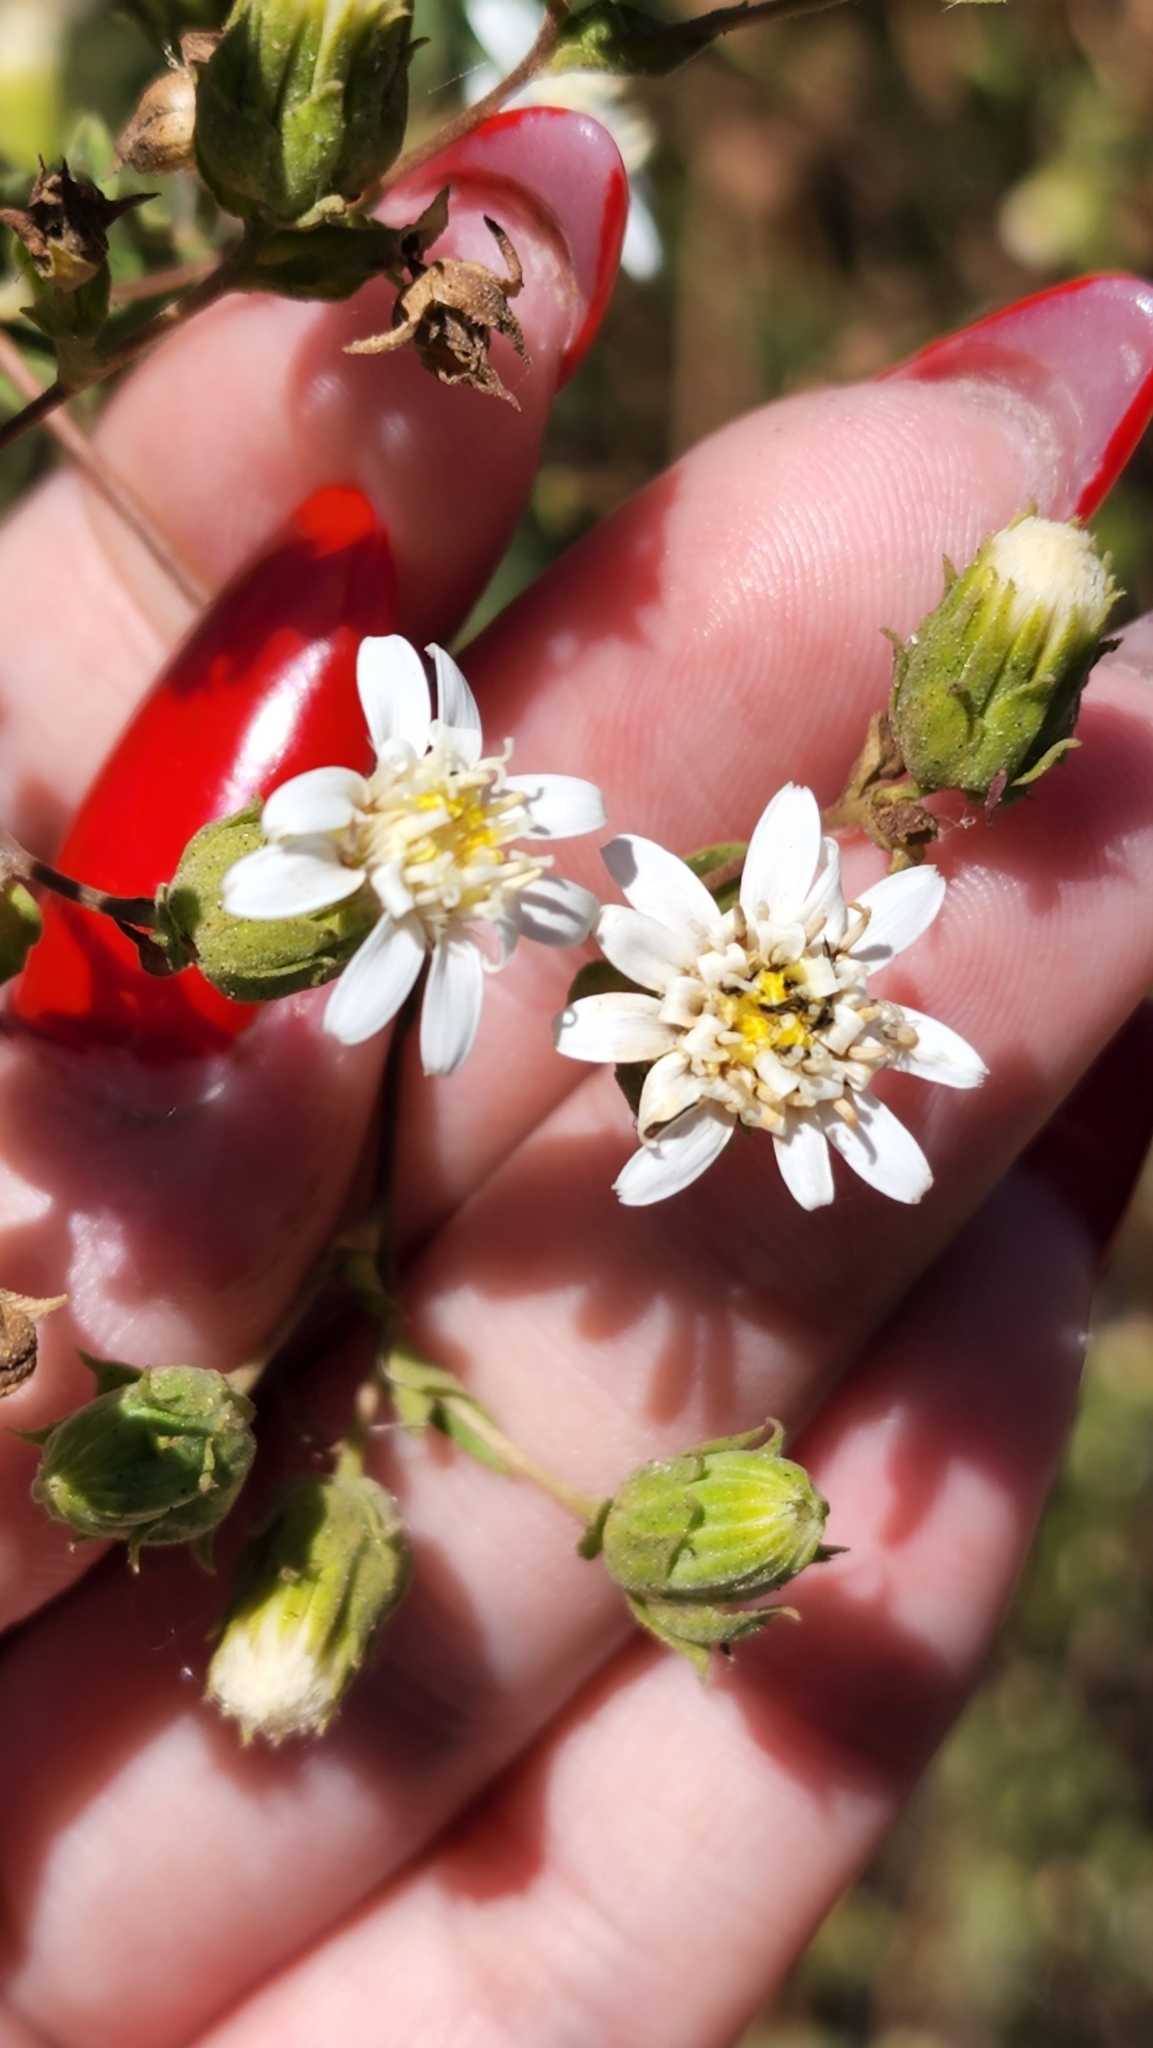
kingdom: Plantae
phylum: Tracheophyta
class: Magnoliopsida
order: Asterales
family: Asteraceae
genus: Jungia
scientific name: Jungia polita
